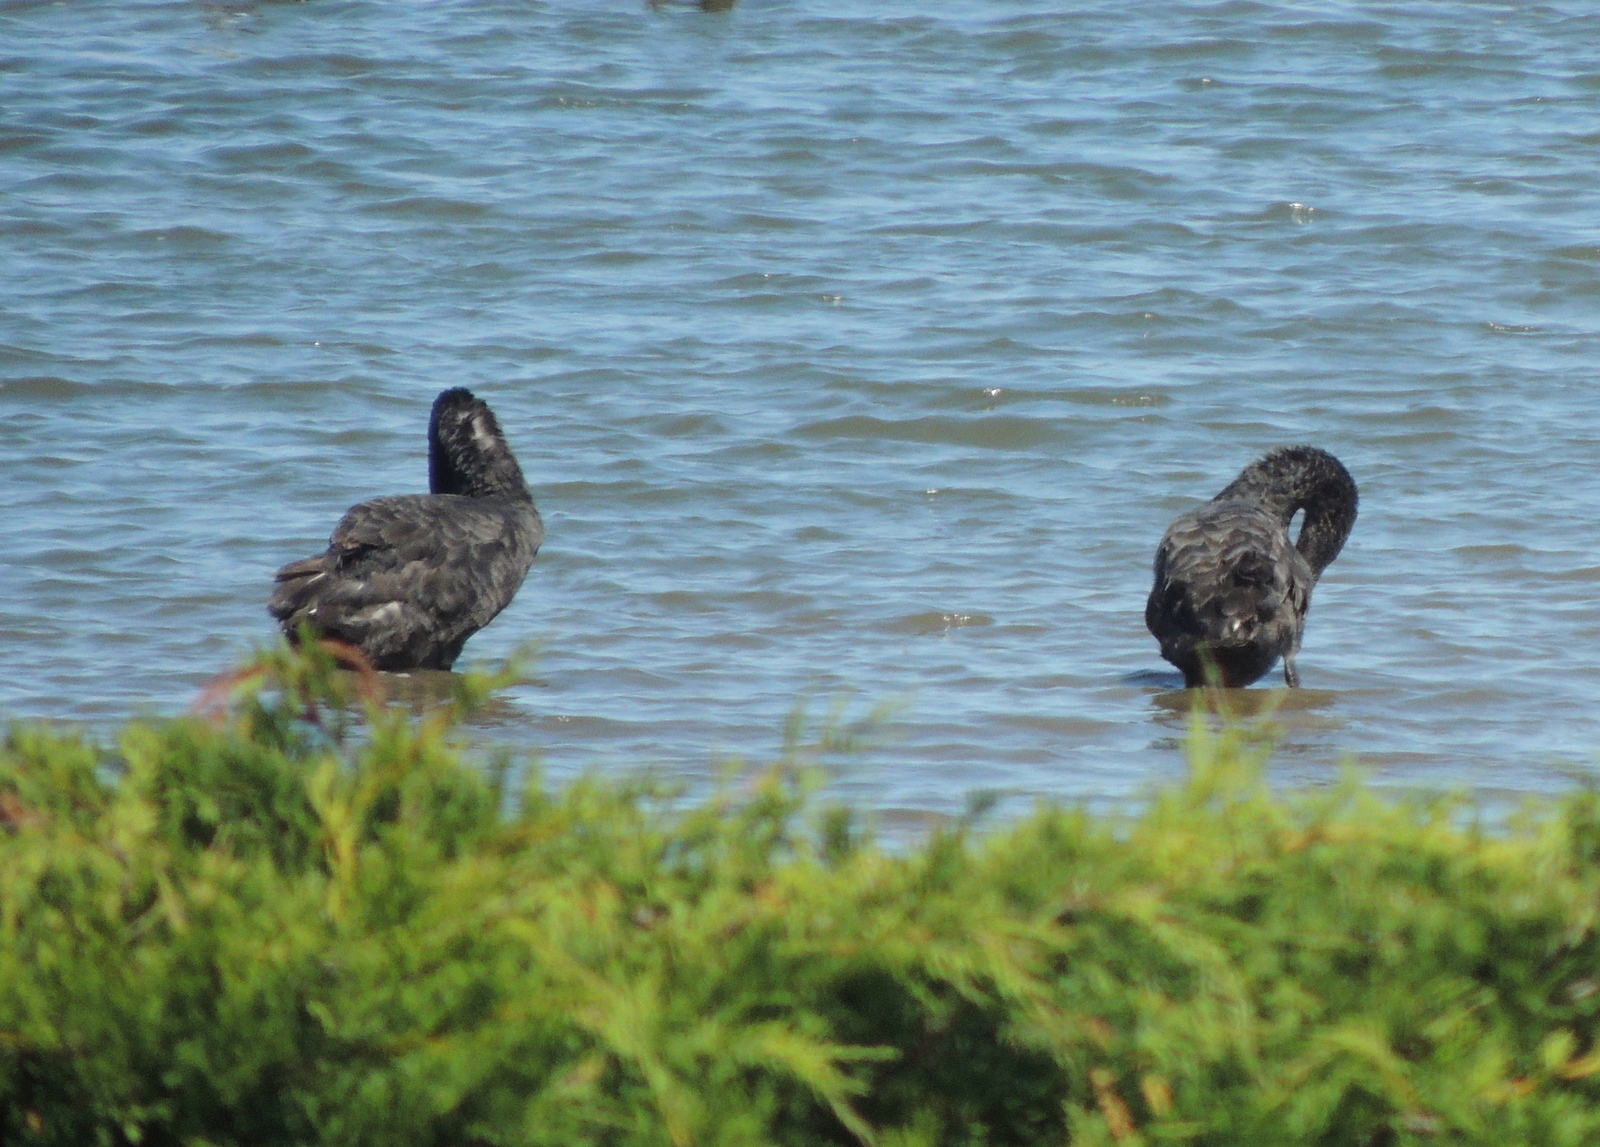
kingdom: Animalia
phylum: Chordata
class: Aves
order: Anseriformes
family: Anatidae
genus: Cygnus
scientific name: Cygnus atratus
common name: Black swan
